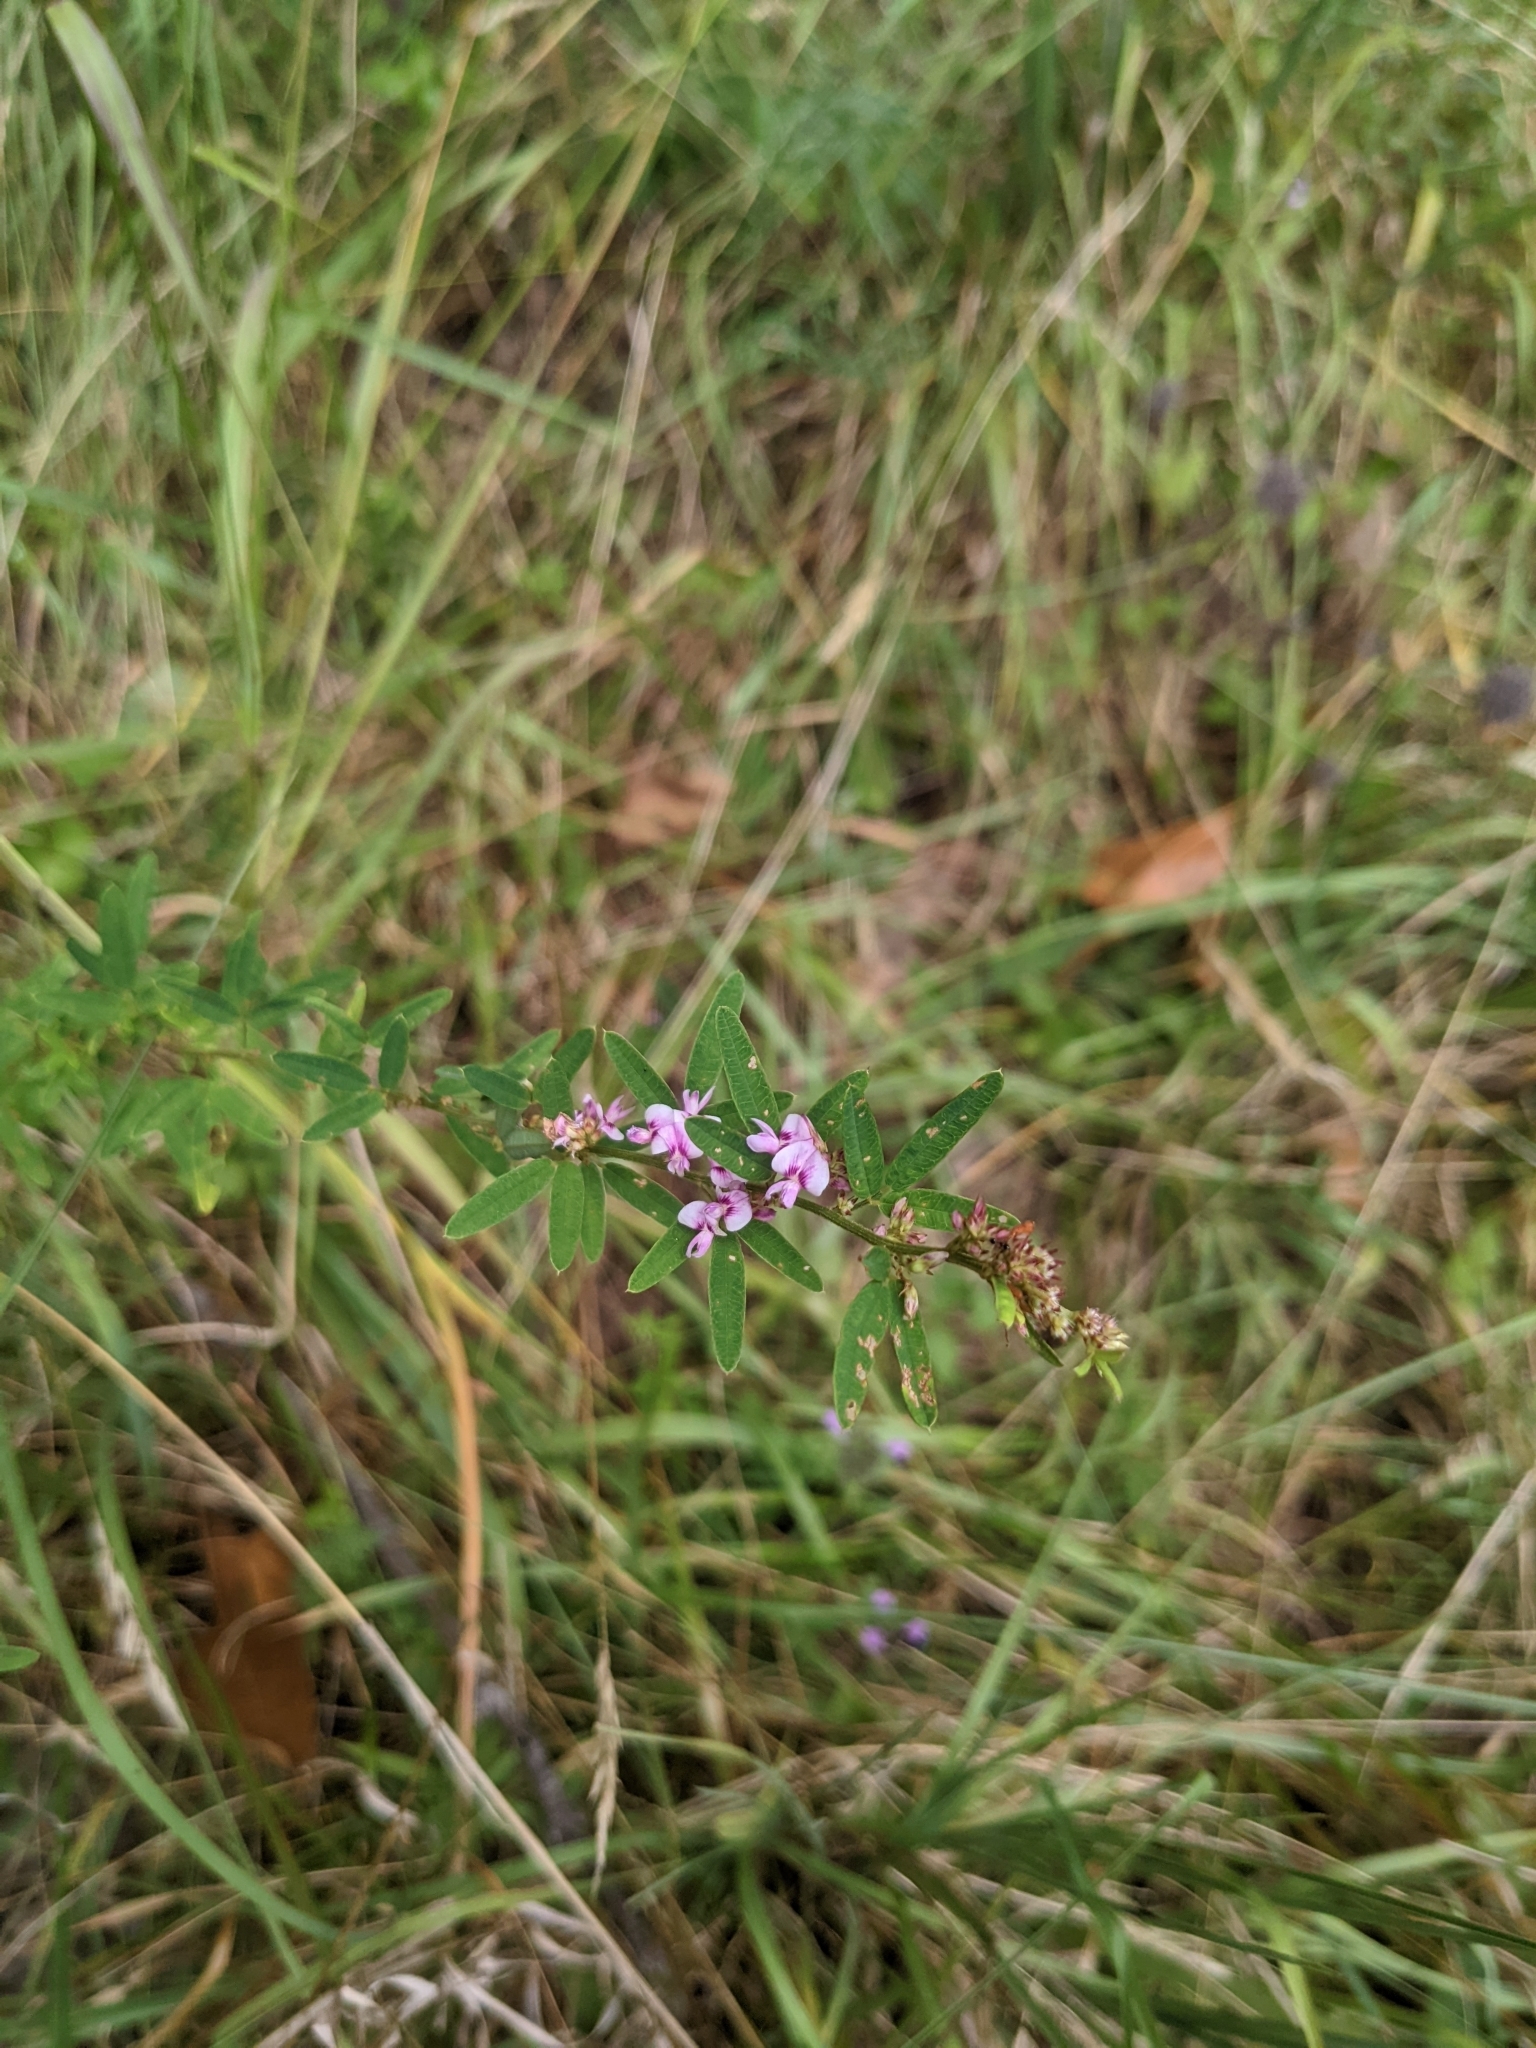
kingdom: Plantae
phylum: Tracheophyta
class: Magnoliopsida
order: Fabales
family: Fabaceae
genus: Lespedeza
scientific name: Lespedeza virginica
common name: Slender bush-clover
